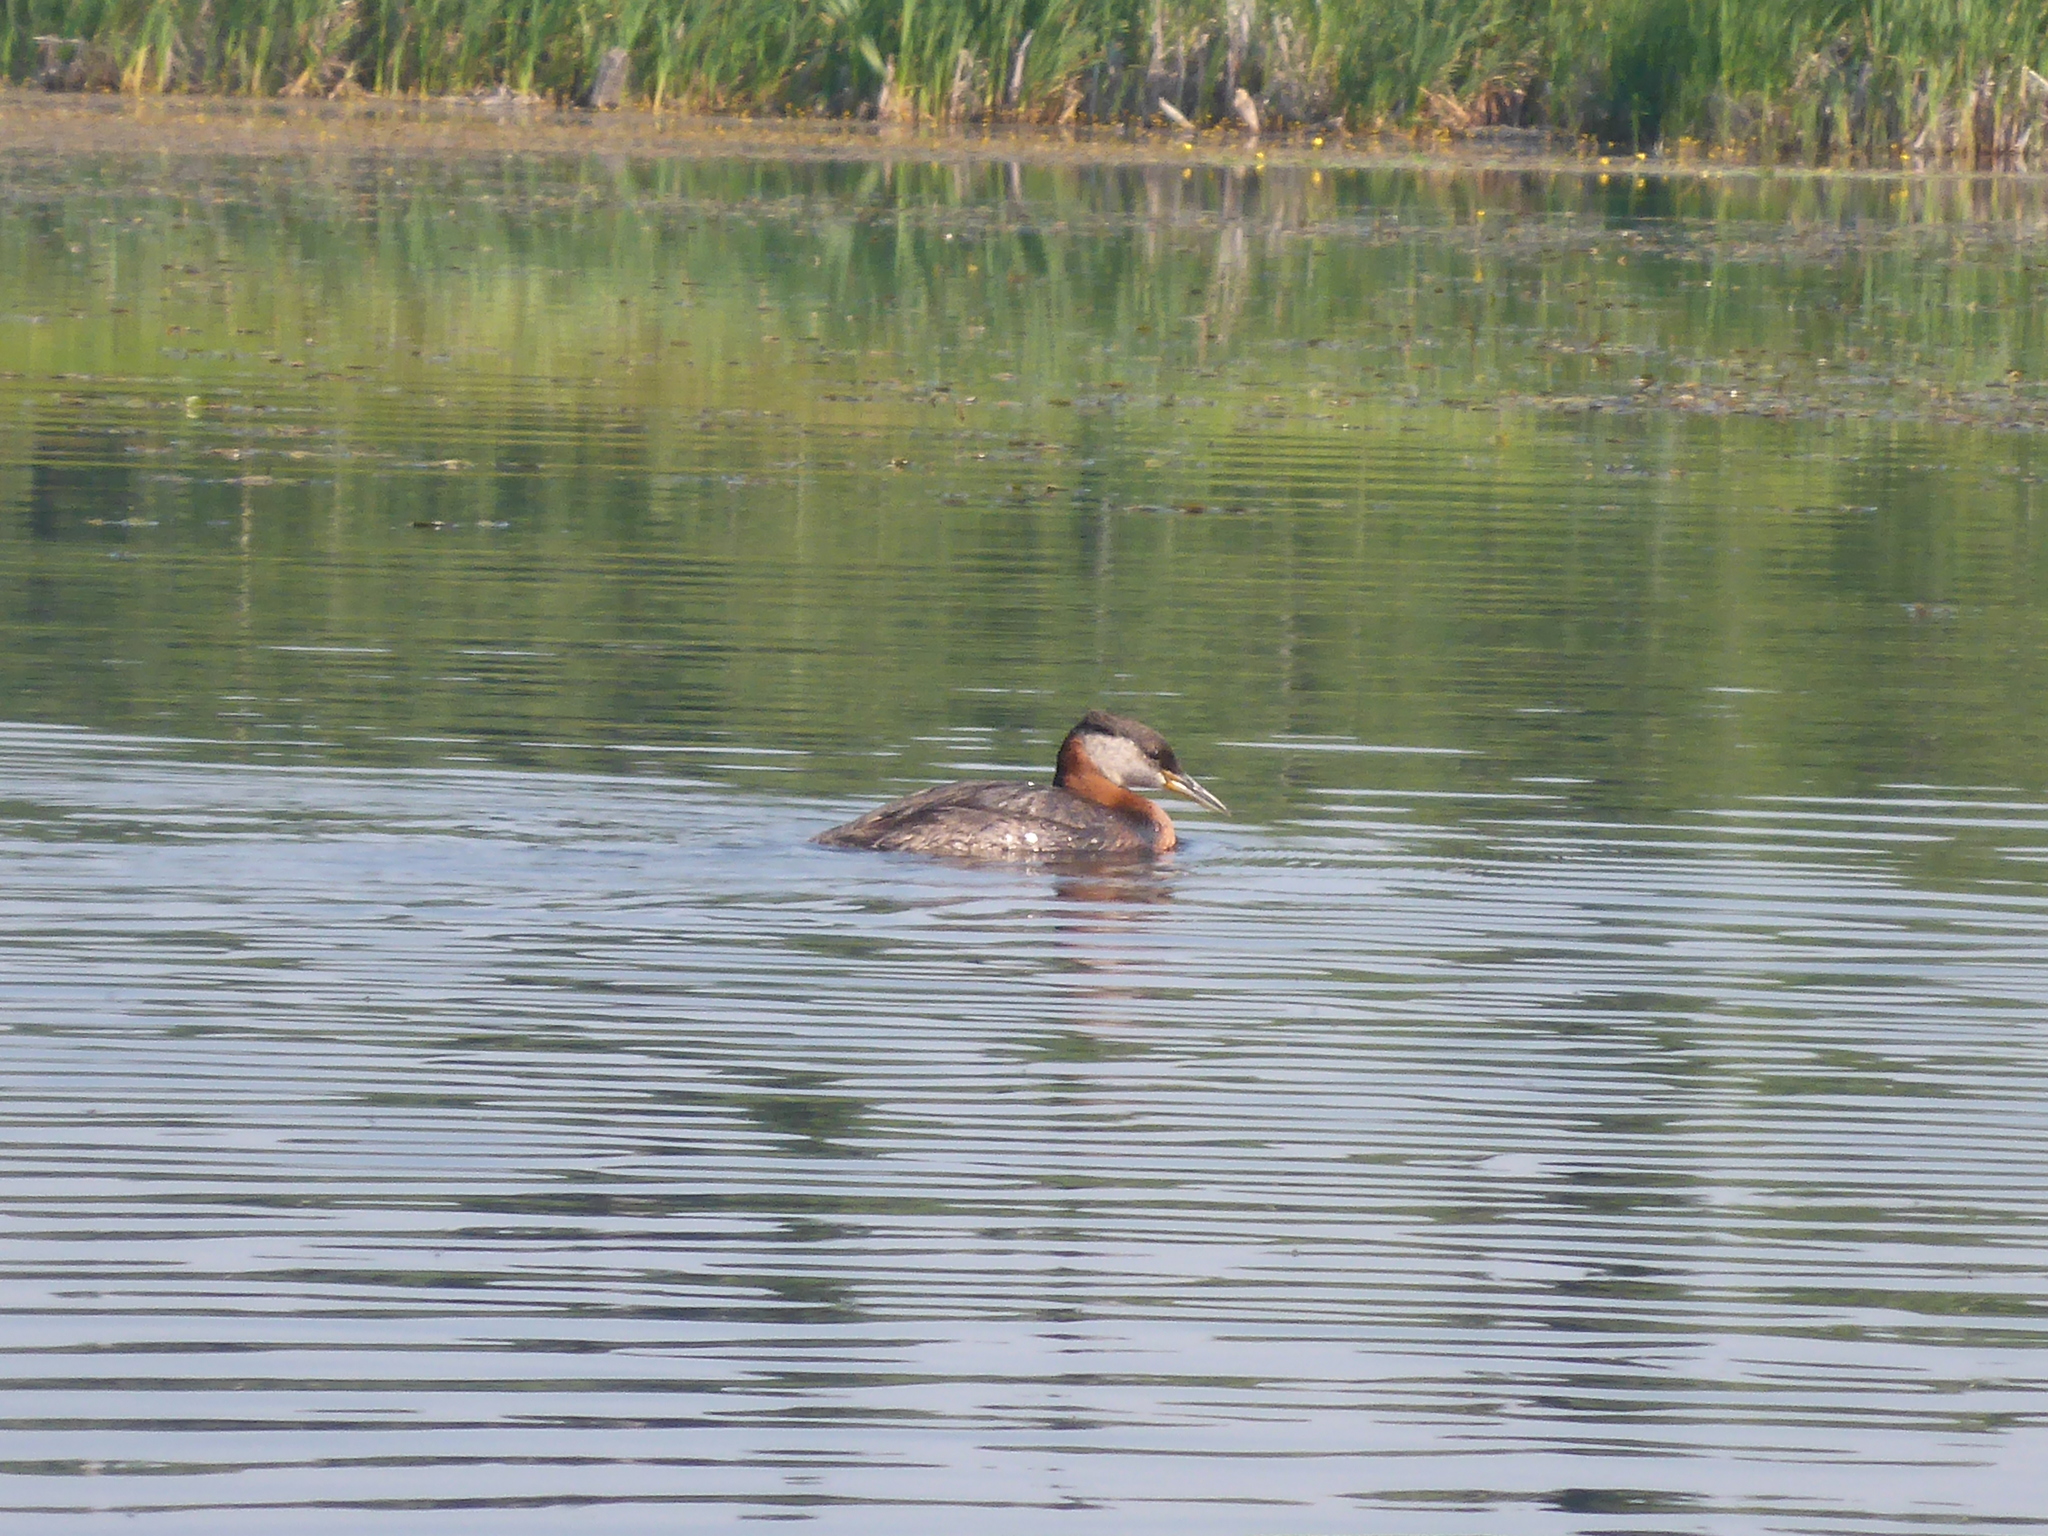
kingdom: Animalia
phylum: Chordata
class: Aves
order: Podicipediformes
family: Podicipedidae
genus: Podiceps
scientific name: Podiceps grisegena
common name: Red-necked grebe
